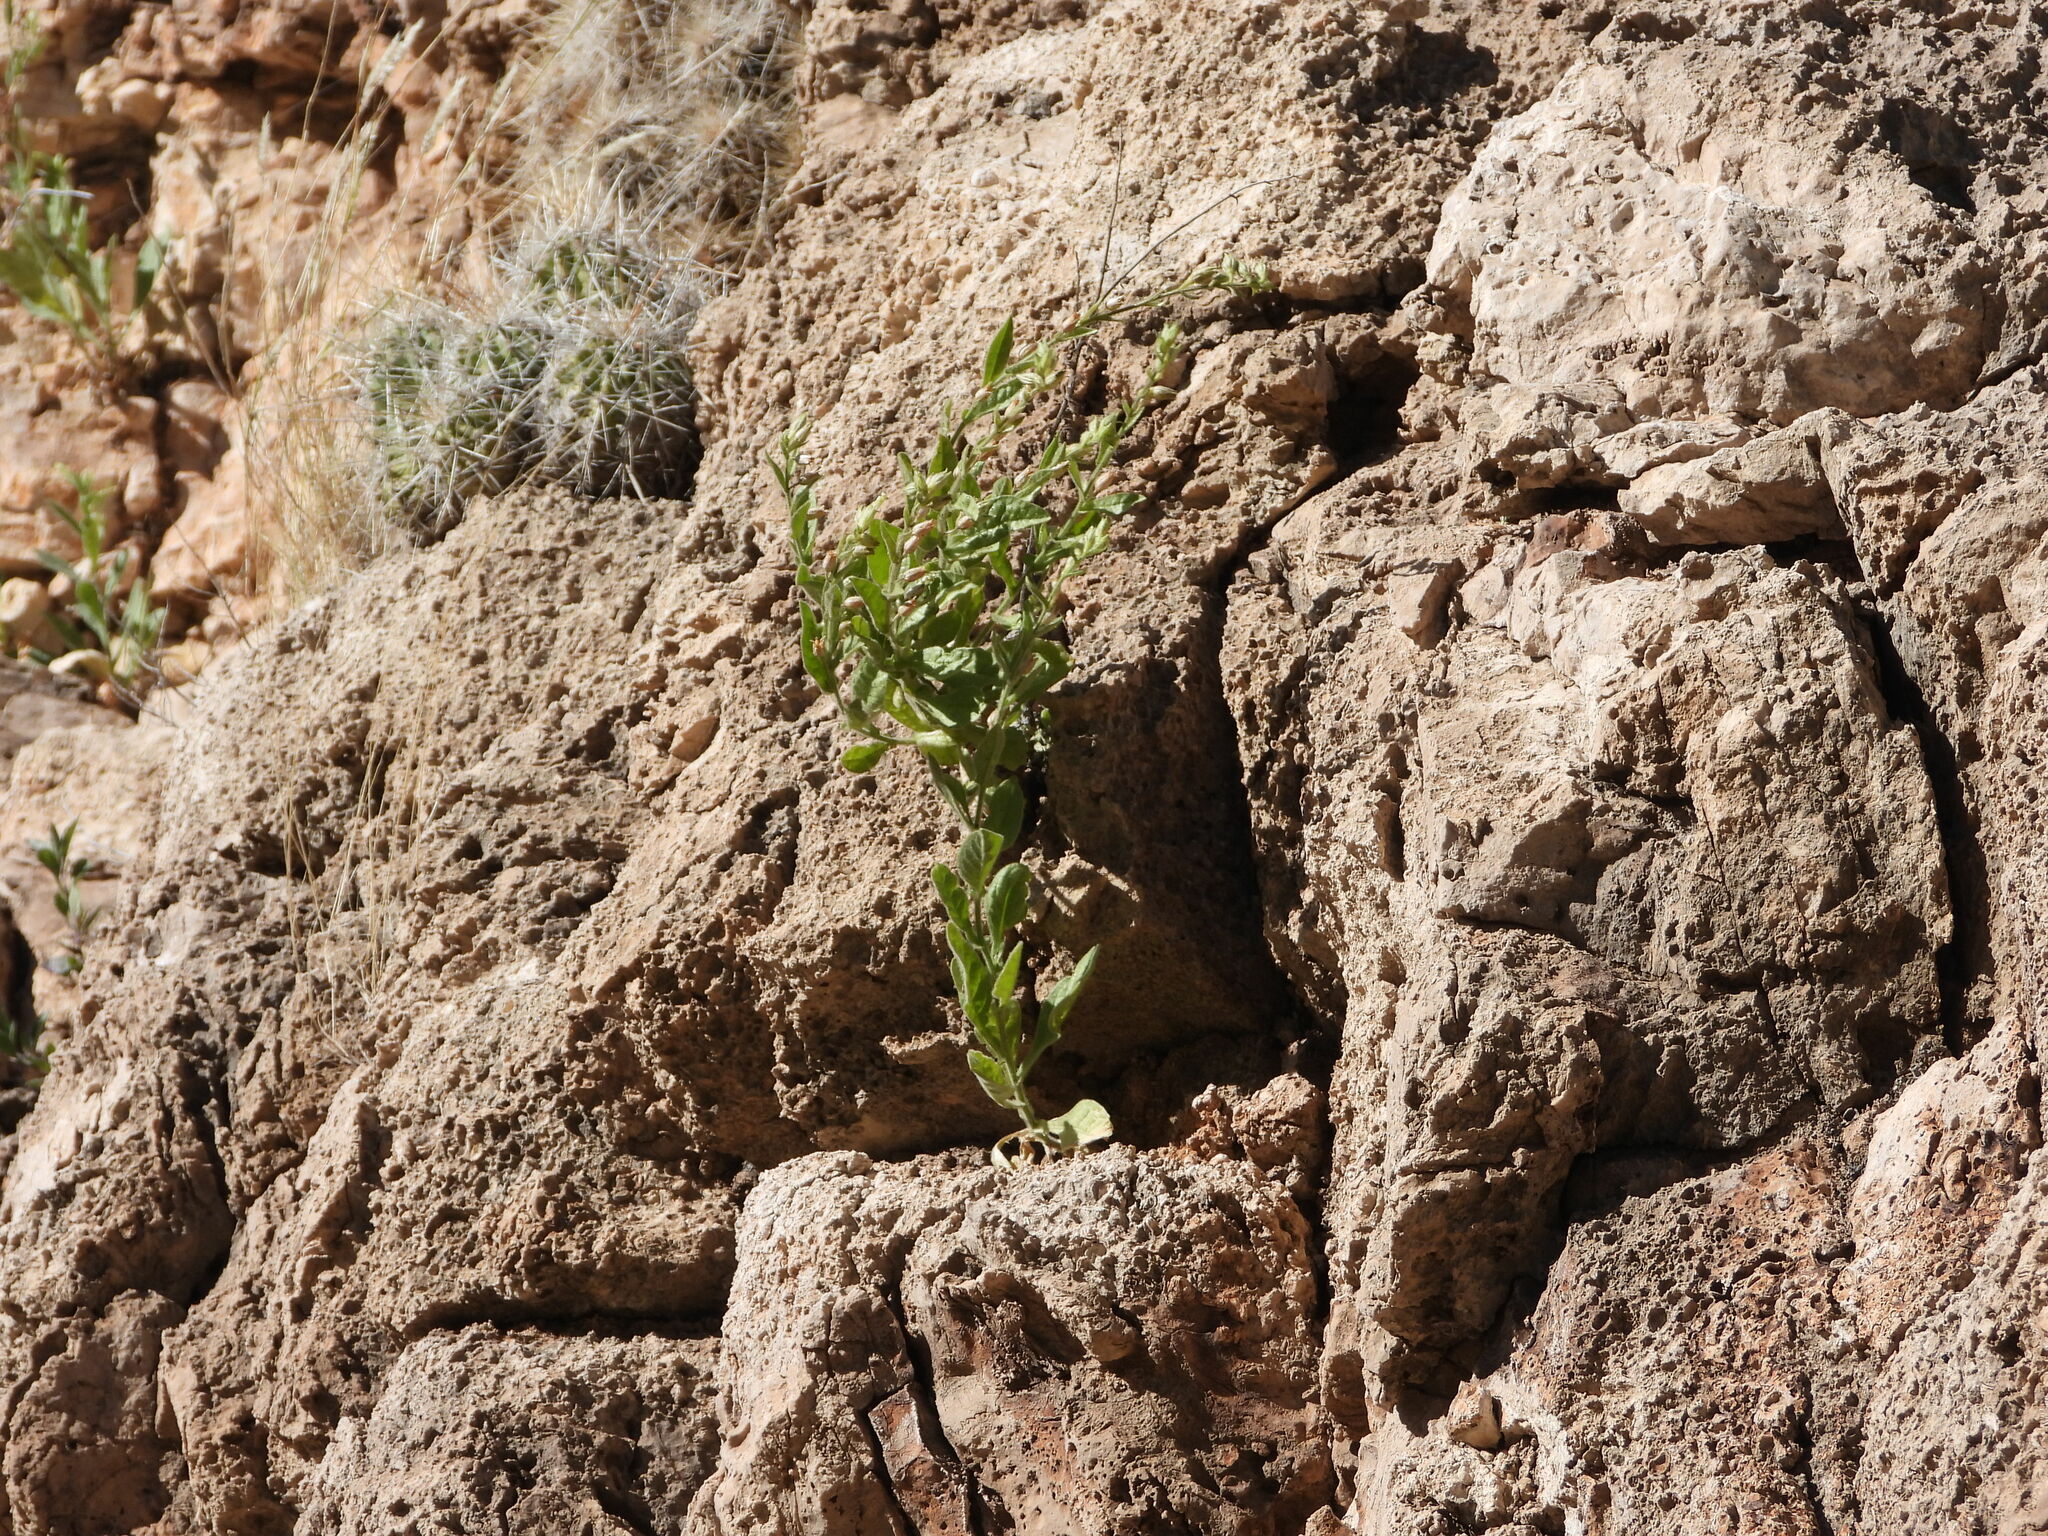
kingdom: Plantae
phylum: Tracheophyta
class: Magnoliopsida
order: Caryophyllales
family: Cactaceae
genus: Echinocereus
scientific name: Echinocereus stramineus
